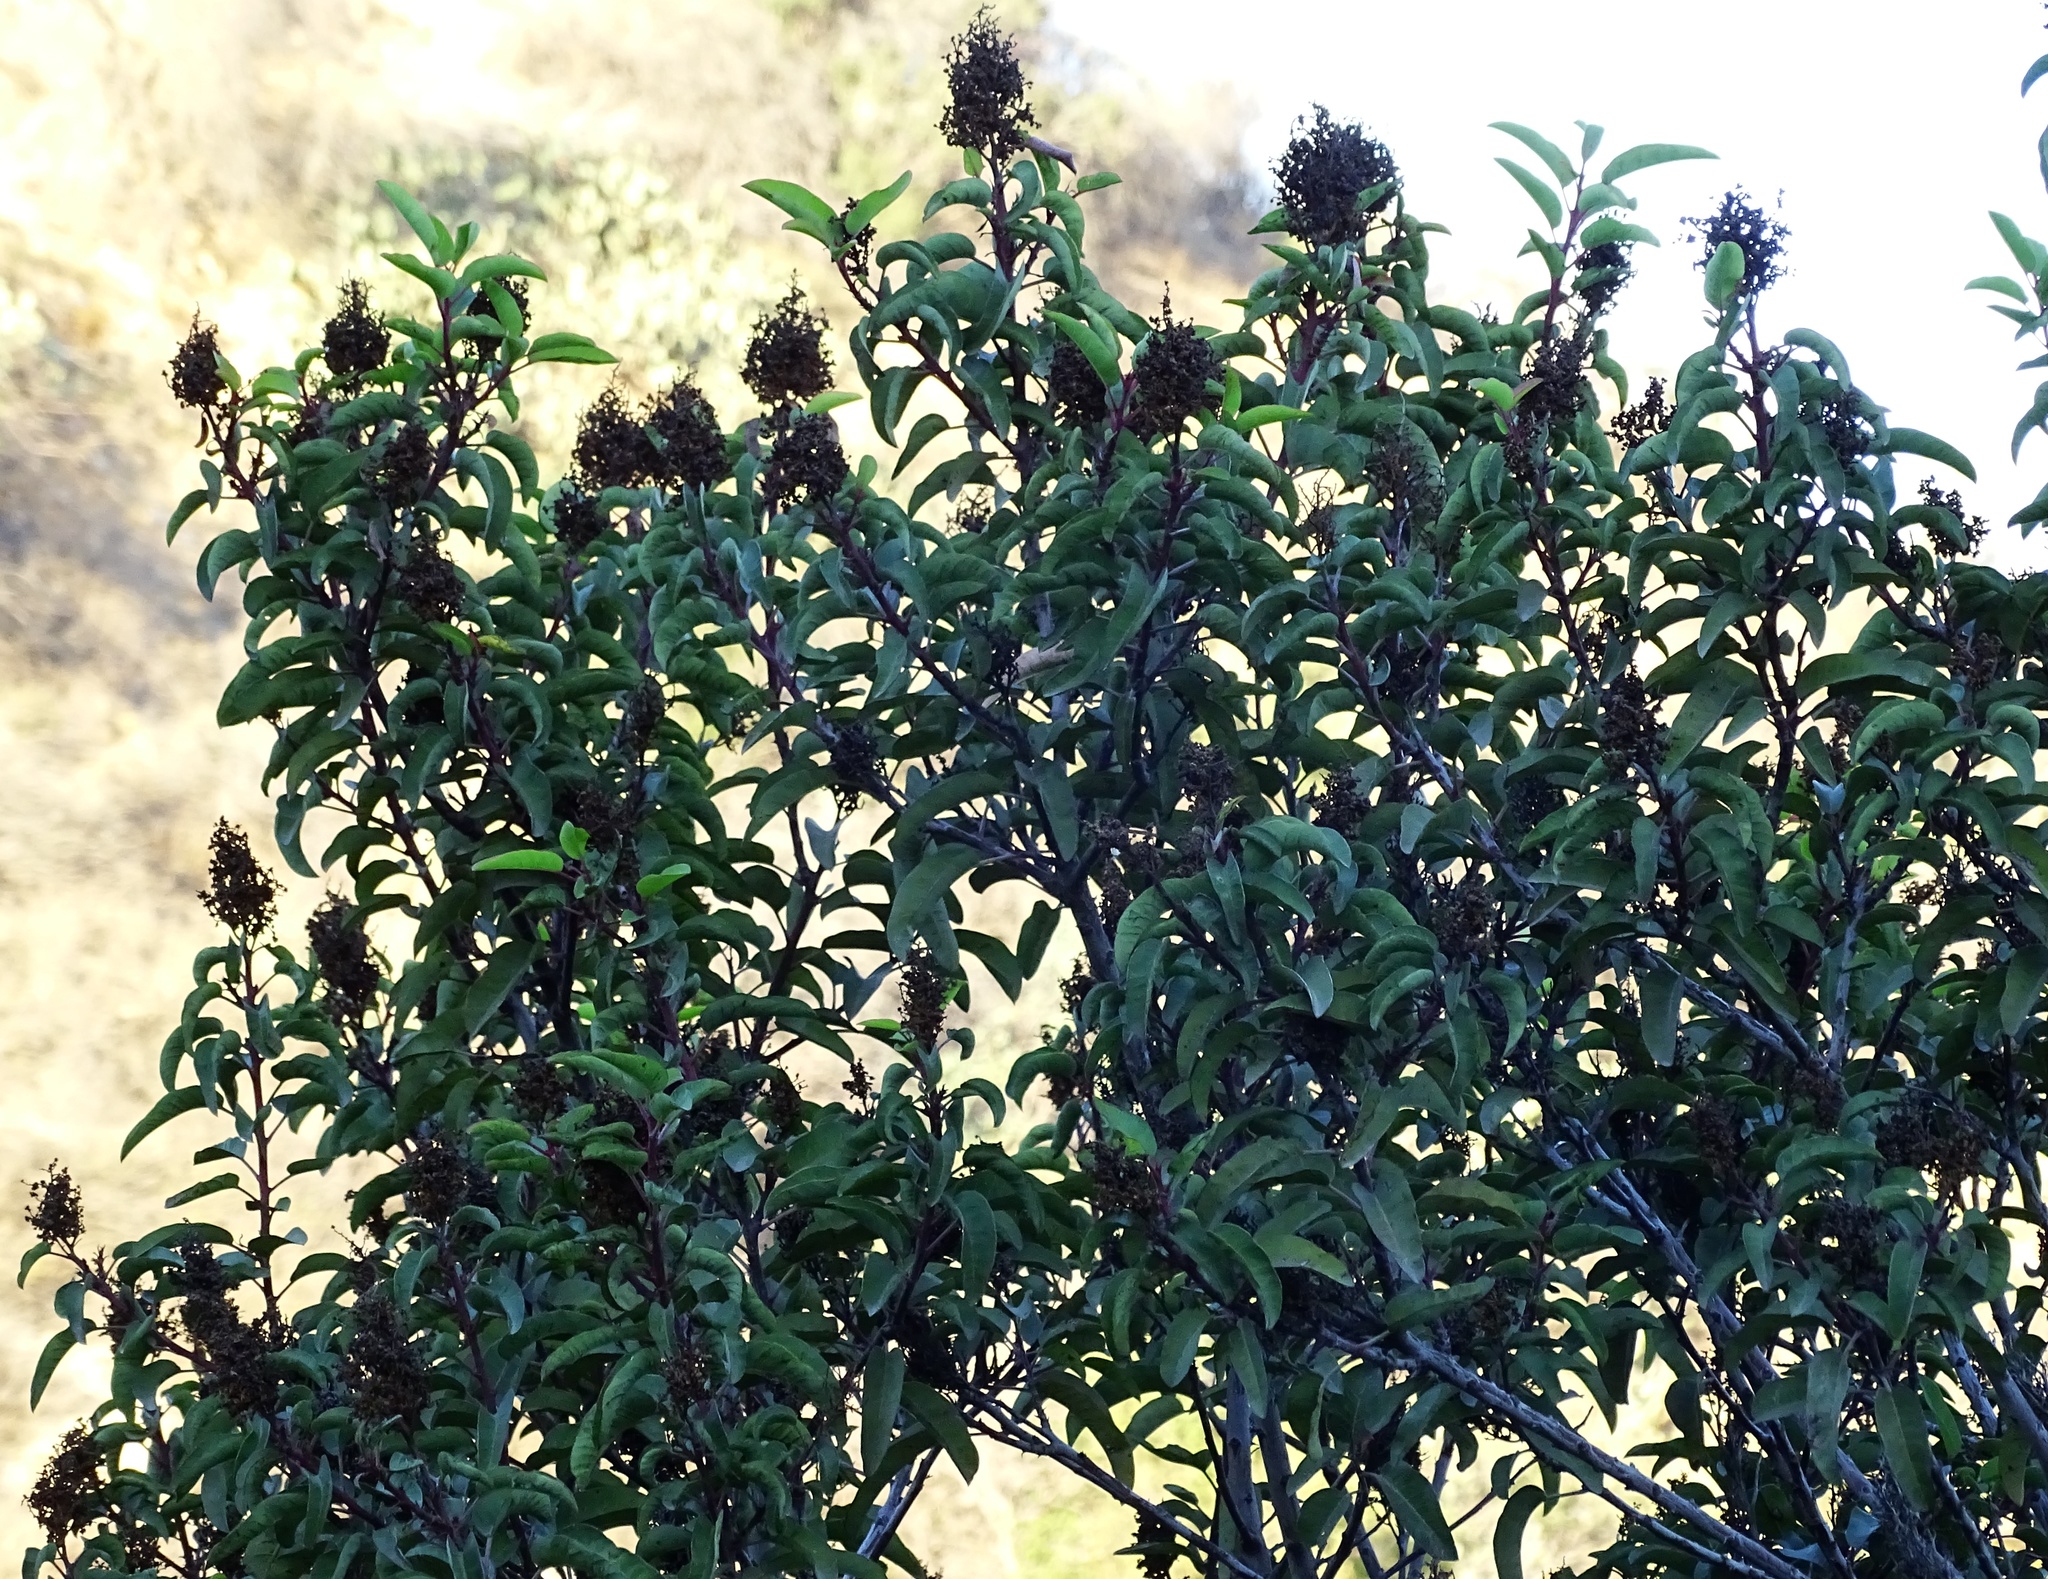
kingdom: Plantae
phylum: Tracheophyta
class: Magnoliopsida
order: Sapindales
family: Anacardiaceae
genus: Malosma
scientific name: Malosma laurina
